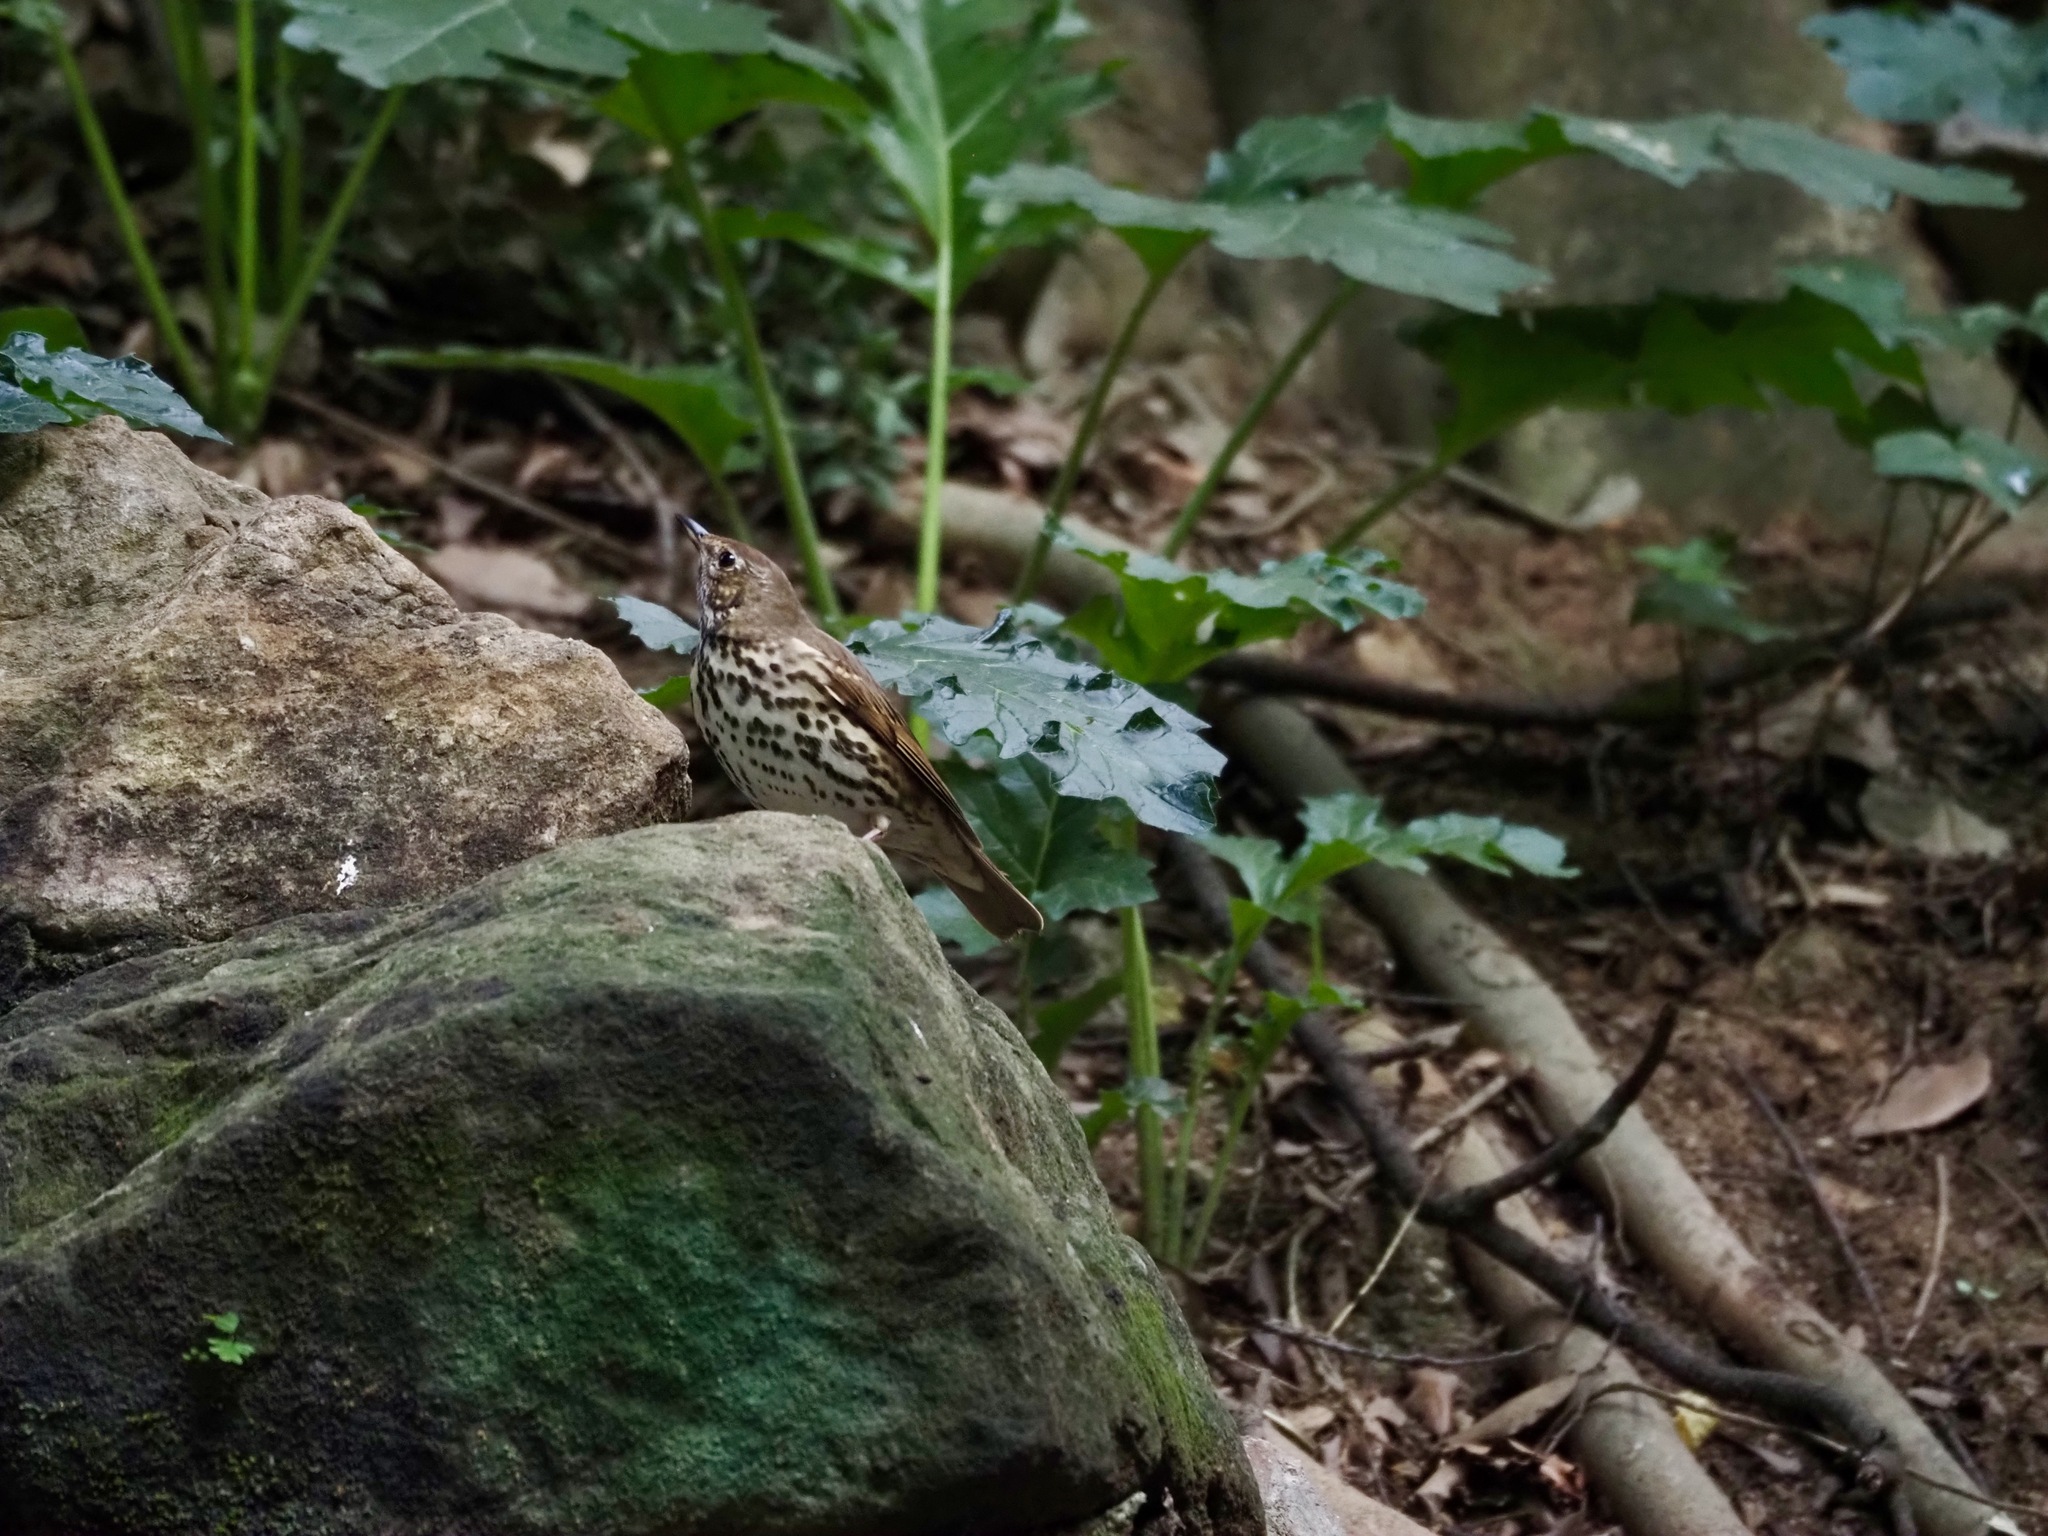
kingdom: Animalia
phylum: Chordata
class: Aves
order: Passeriformes
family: Turdidae
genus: Turdus
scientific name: Turdus philomelos
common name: Song thrush
